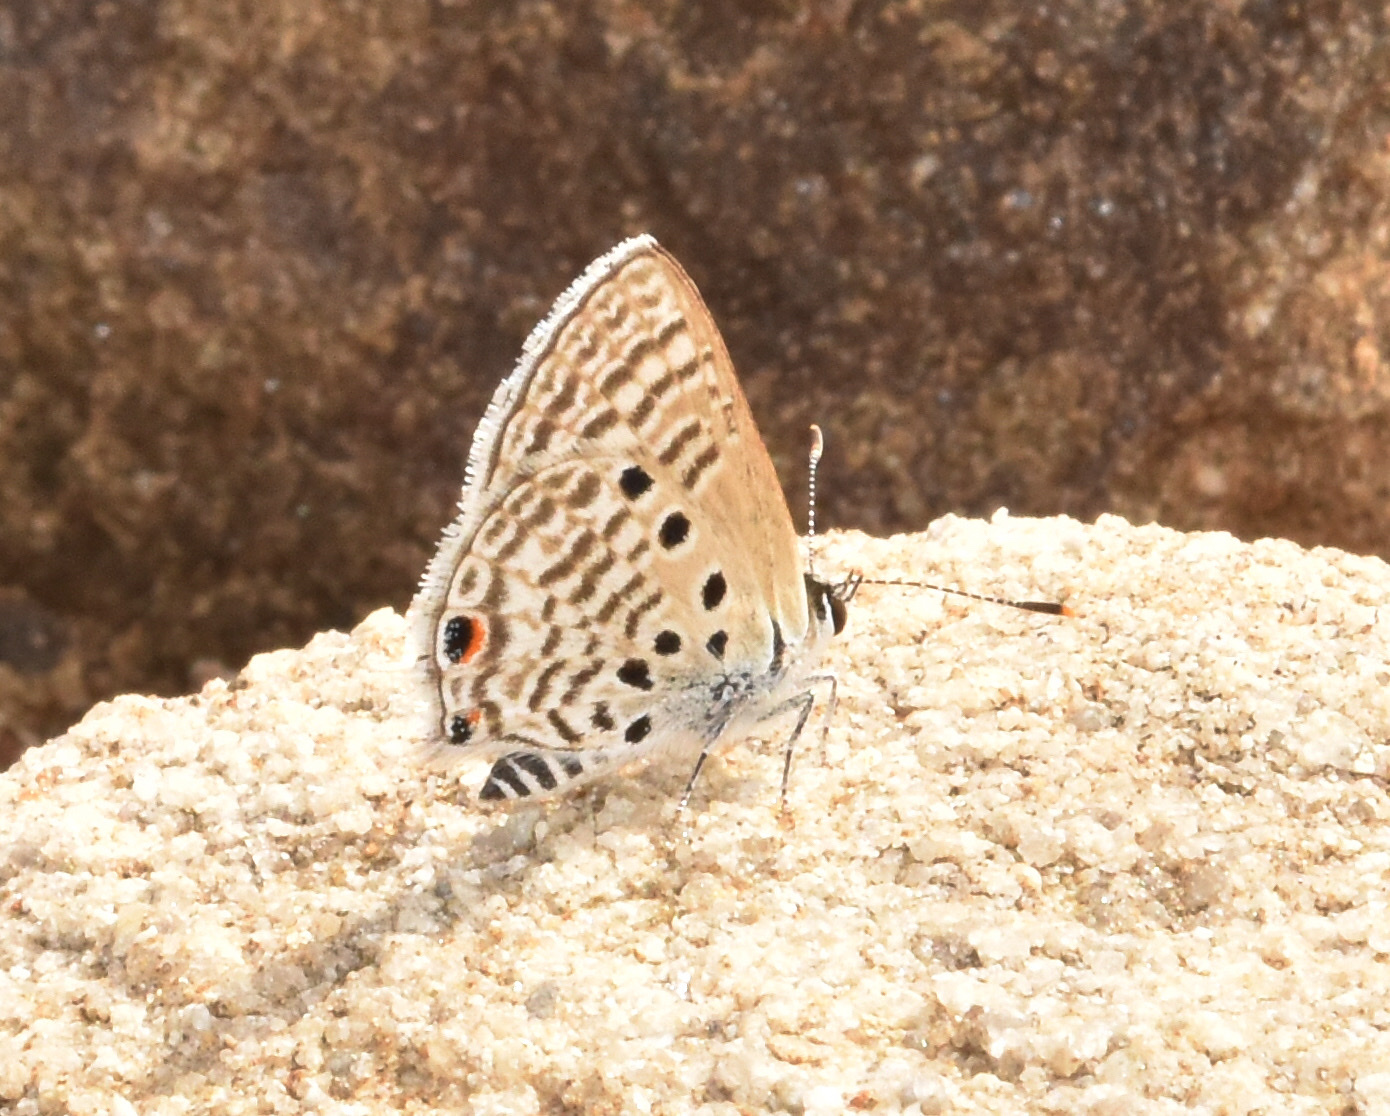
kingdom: Animalia
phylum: Arthropoda
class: Insecta
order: Lepidoptera
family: Lycaenidae
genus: Anthene
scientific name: Anthene amarah
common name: Black-striped hairtail
